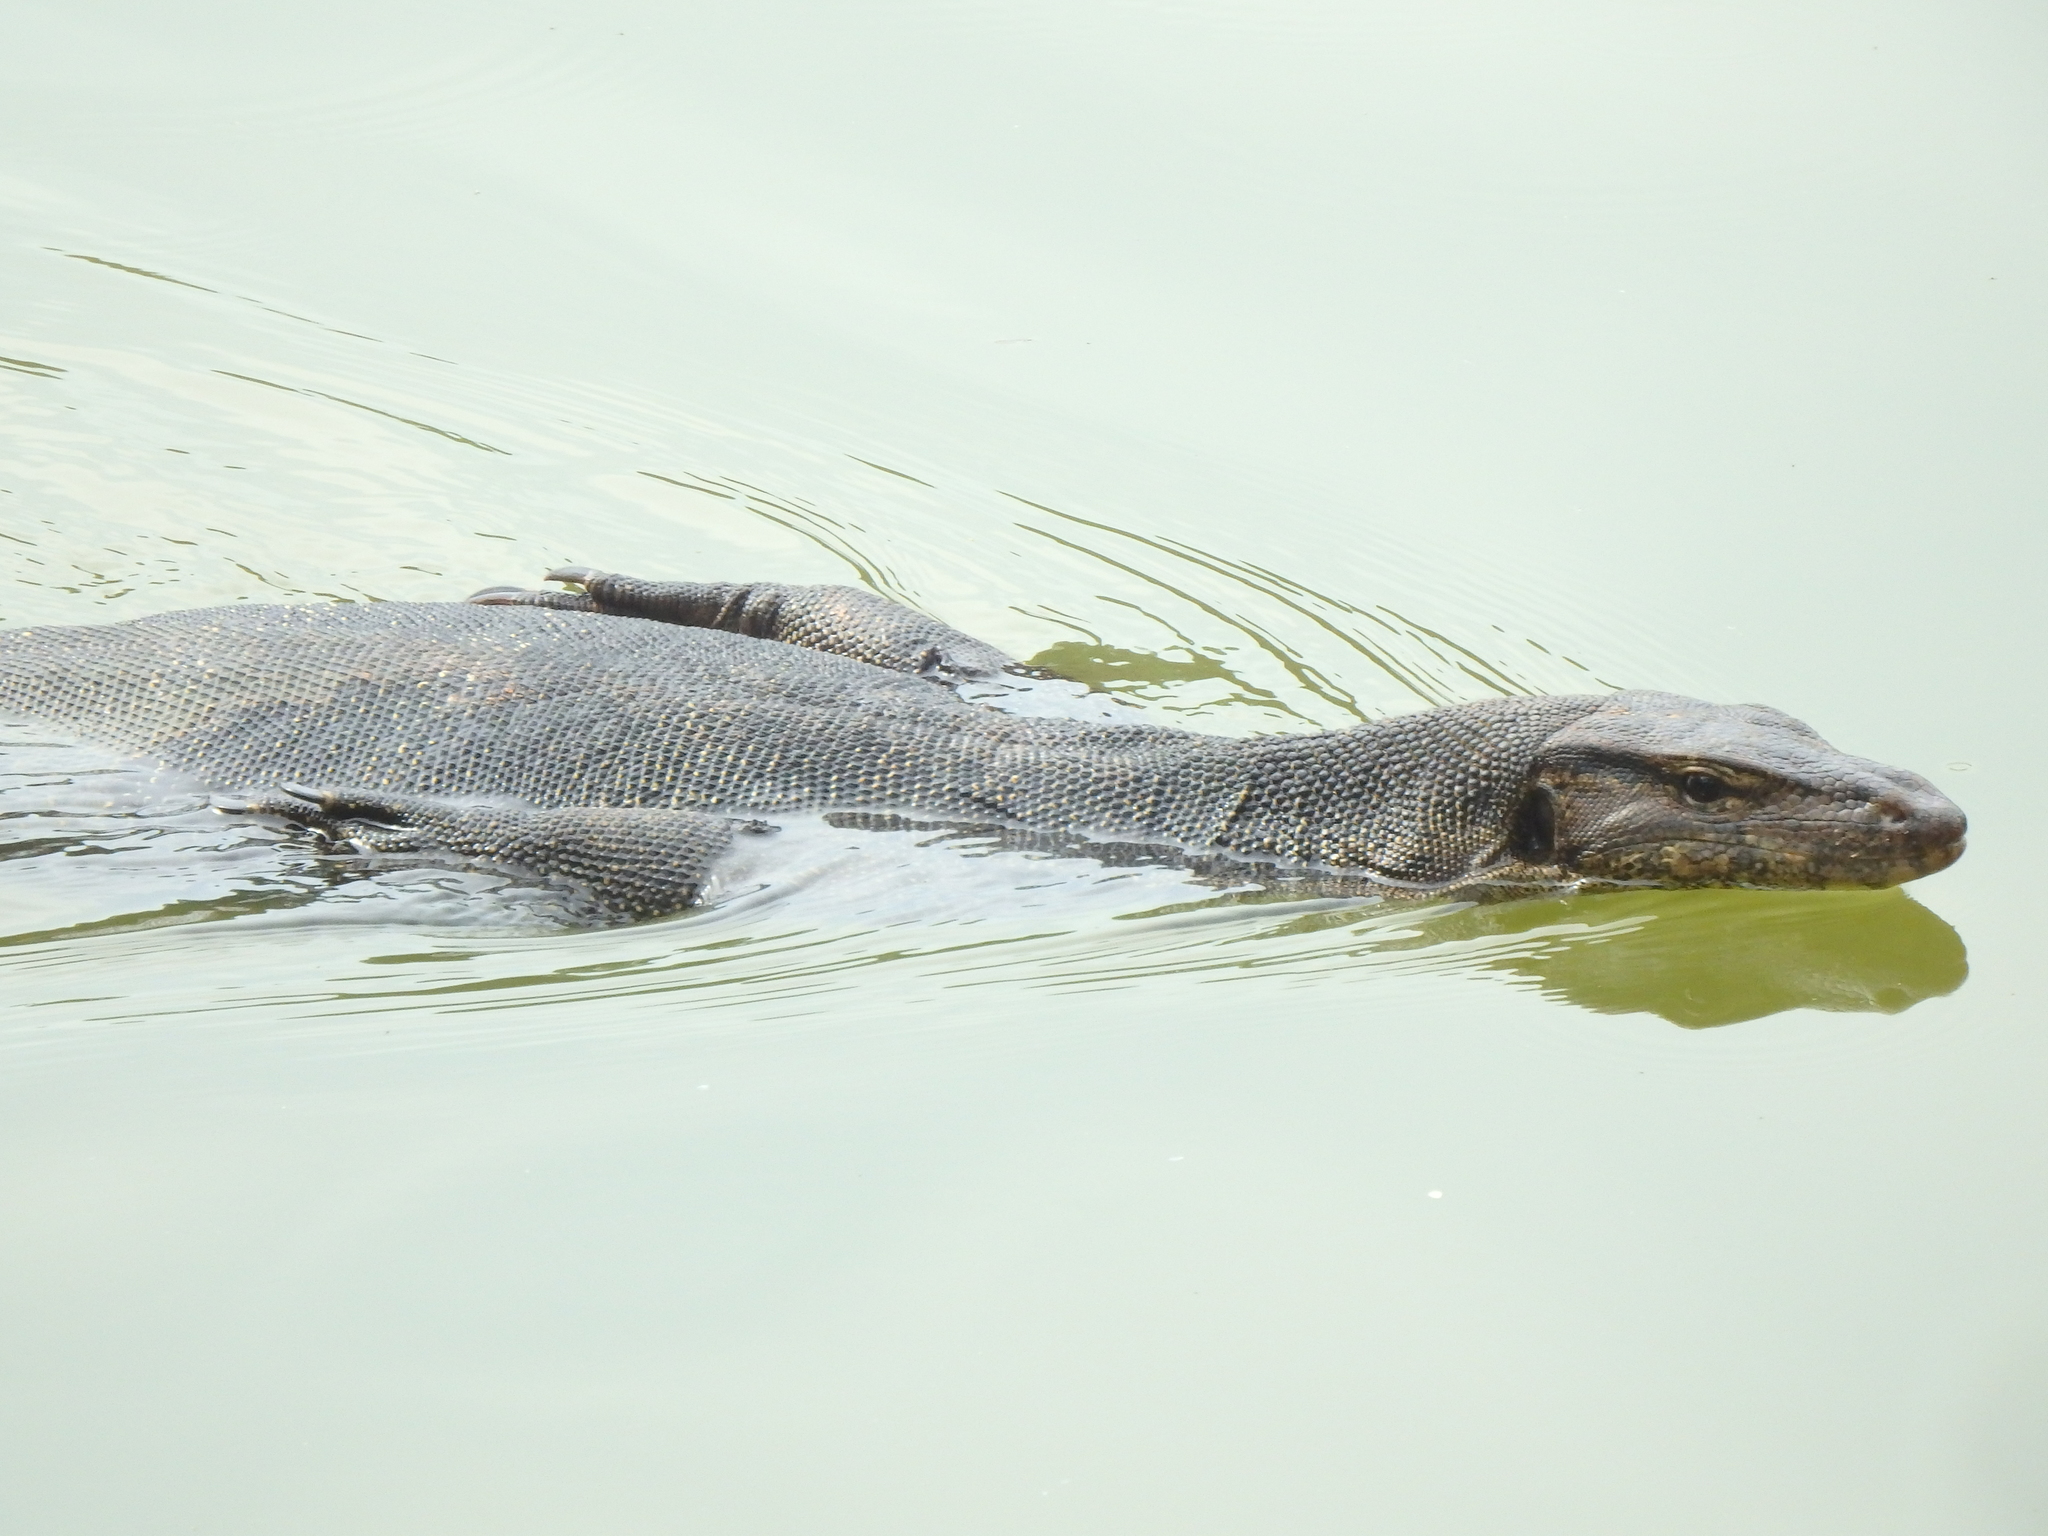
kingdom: Animalia
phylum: Chordata
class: Squamata
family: Varanidae
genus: Varanus
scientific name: Varanus salvator
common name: Common water monitor
